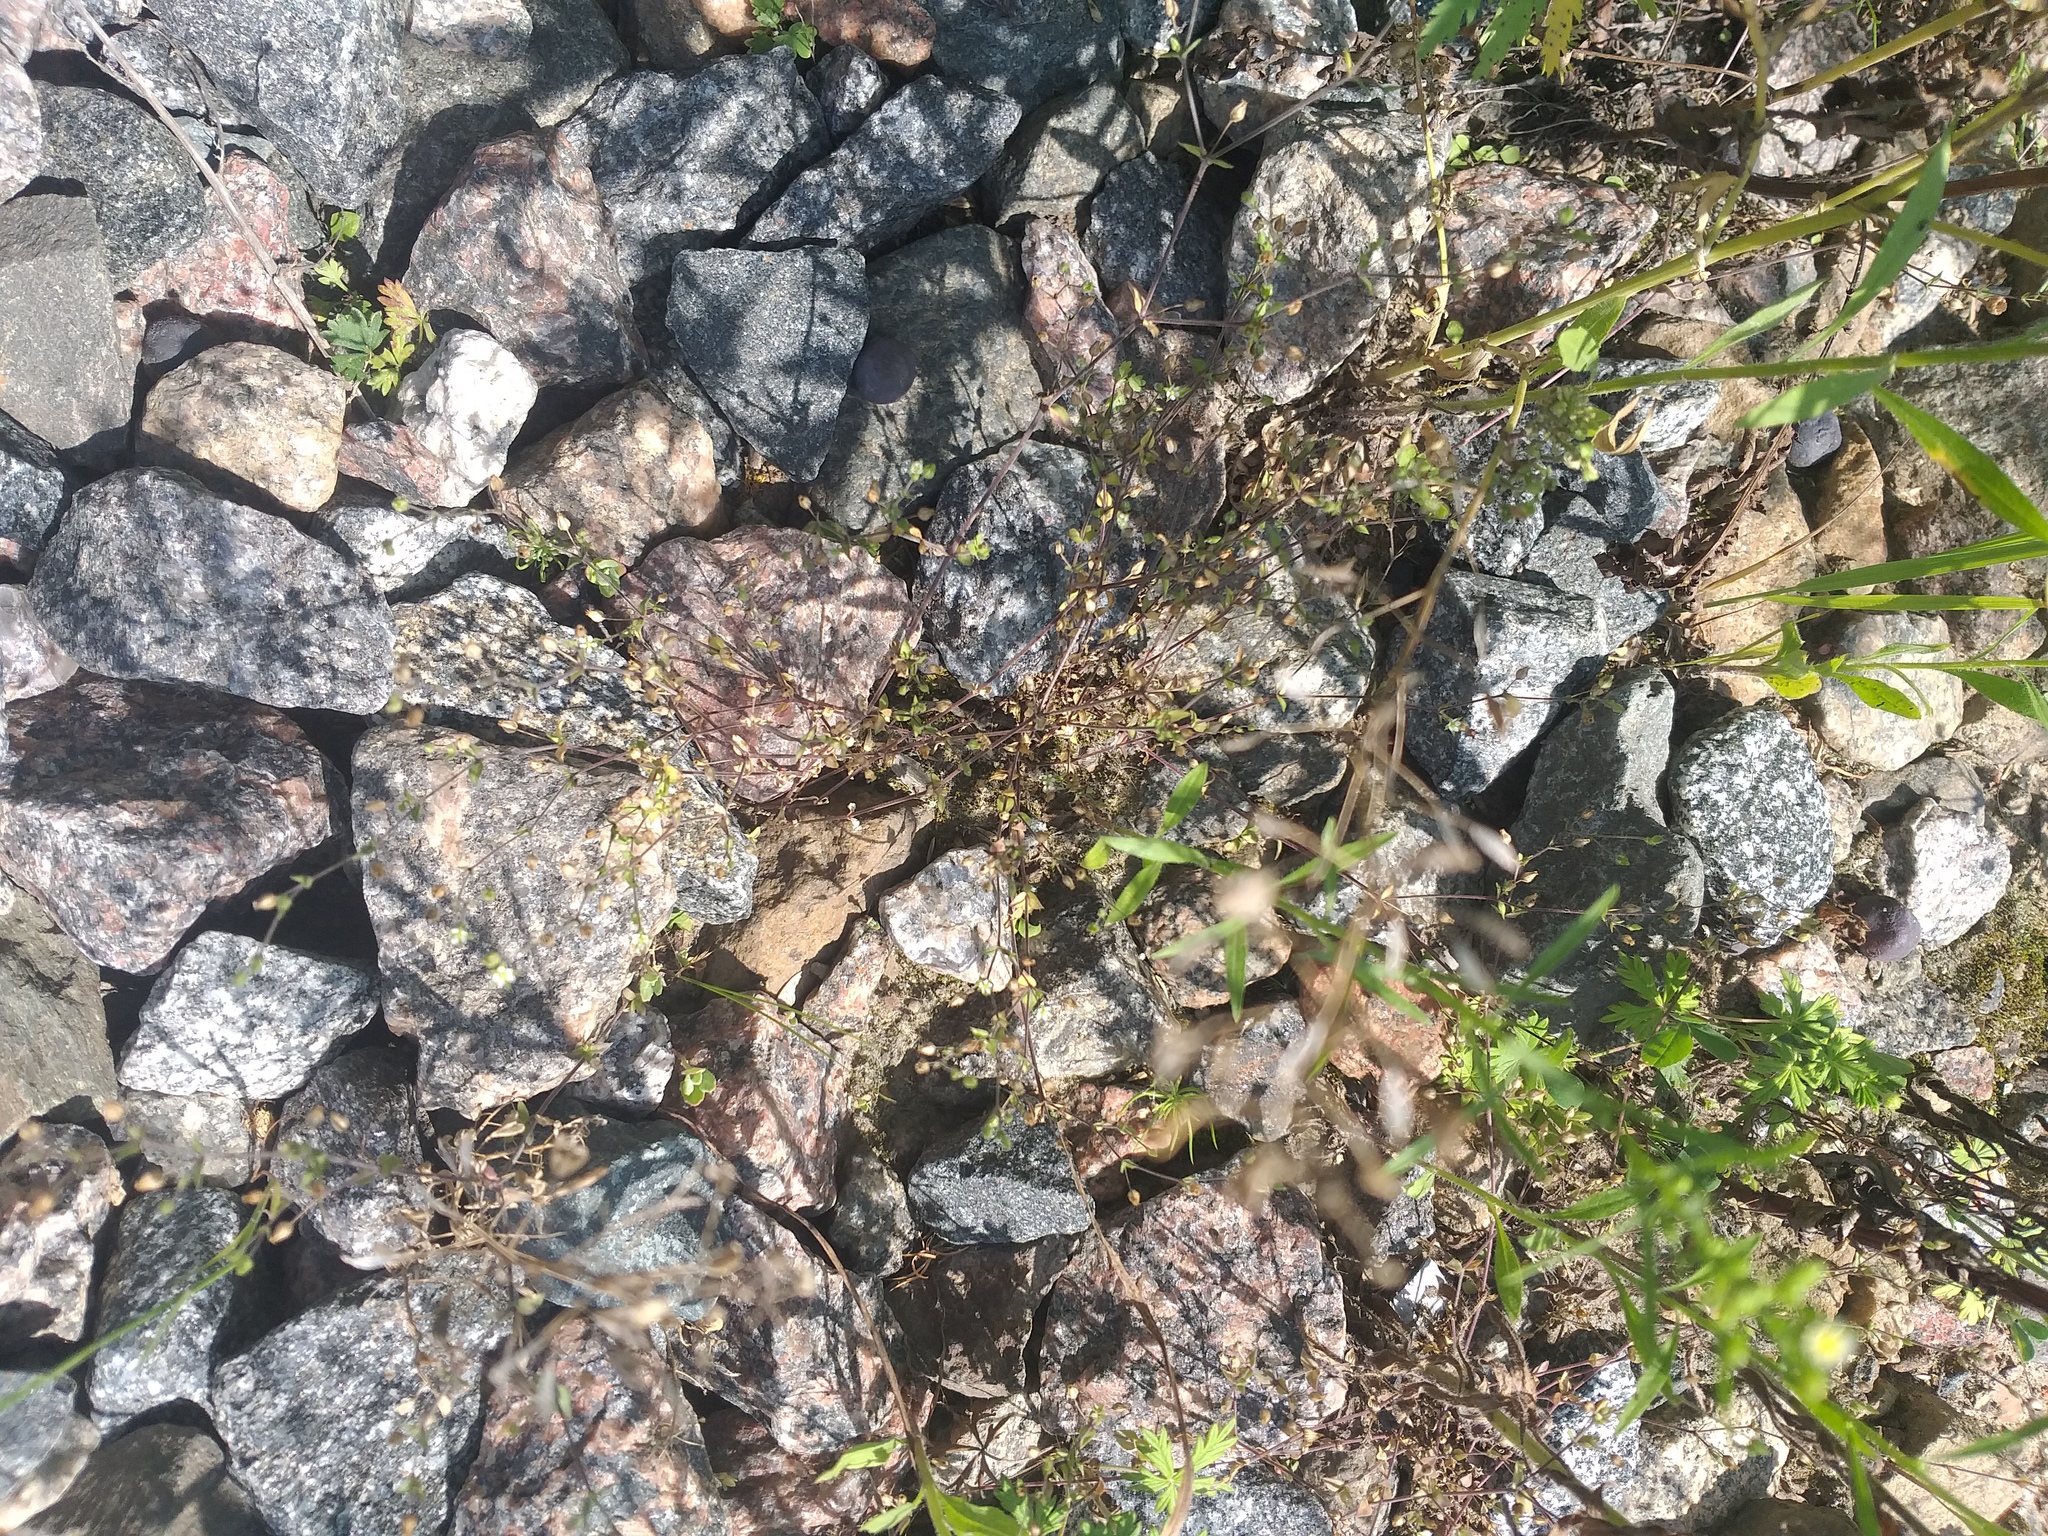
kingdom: Plantae
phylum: Tracheophyta
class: Magnoliopsida
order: Caryophyllales
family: Caryophyllaceae
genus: Arenaria
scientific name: Arenaria serpyllifolia
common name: Thyme-leaved sandwort
